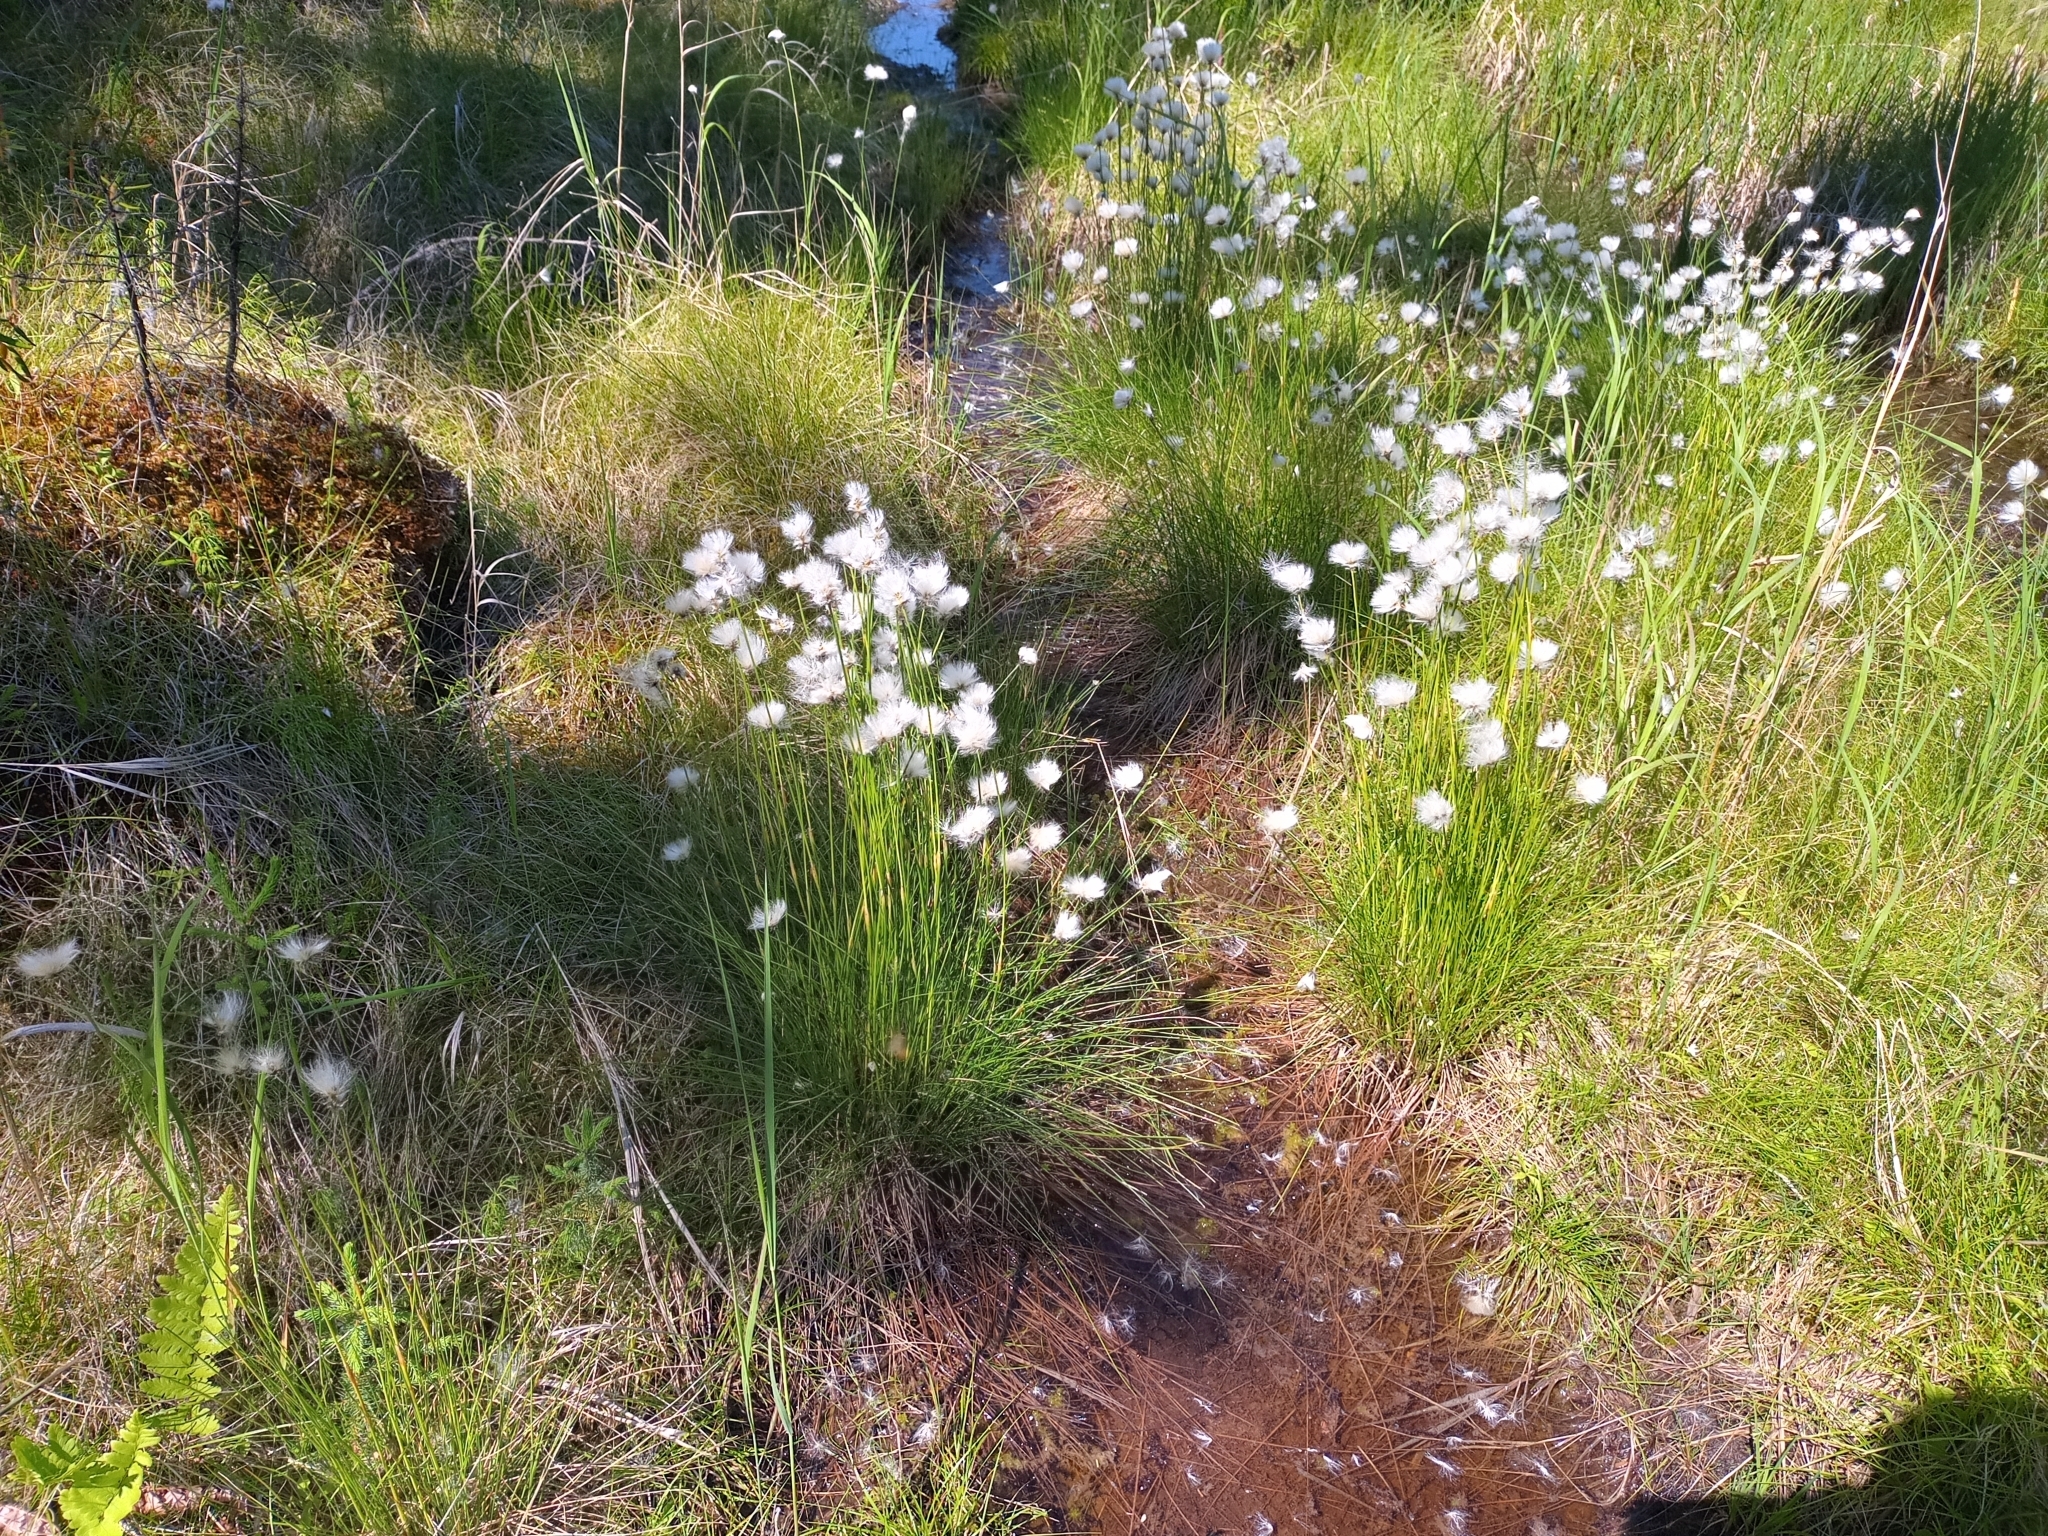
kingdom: Plantae
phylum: Tracheophyta
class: Liliopsida
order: Poales
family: Cyperaceae
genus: Eriophorum
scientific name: Eriophorum vaginatum
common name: Hare's-tail cottongrass
